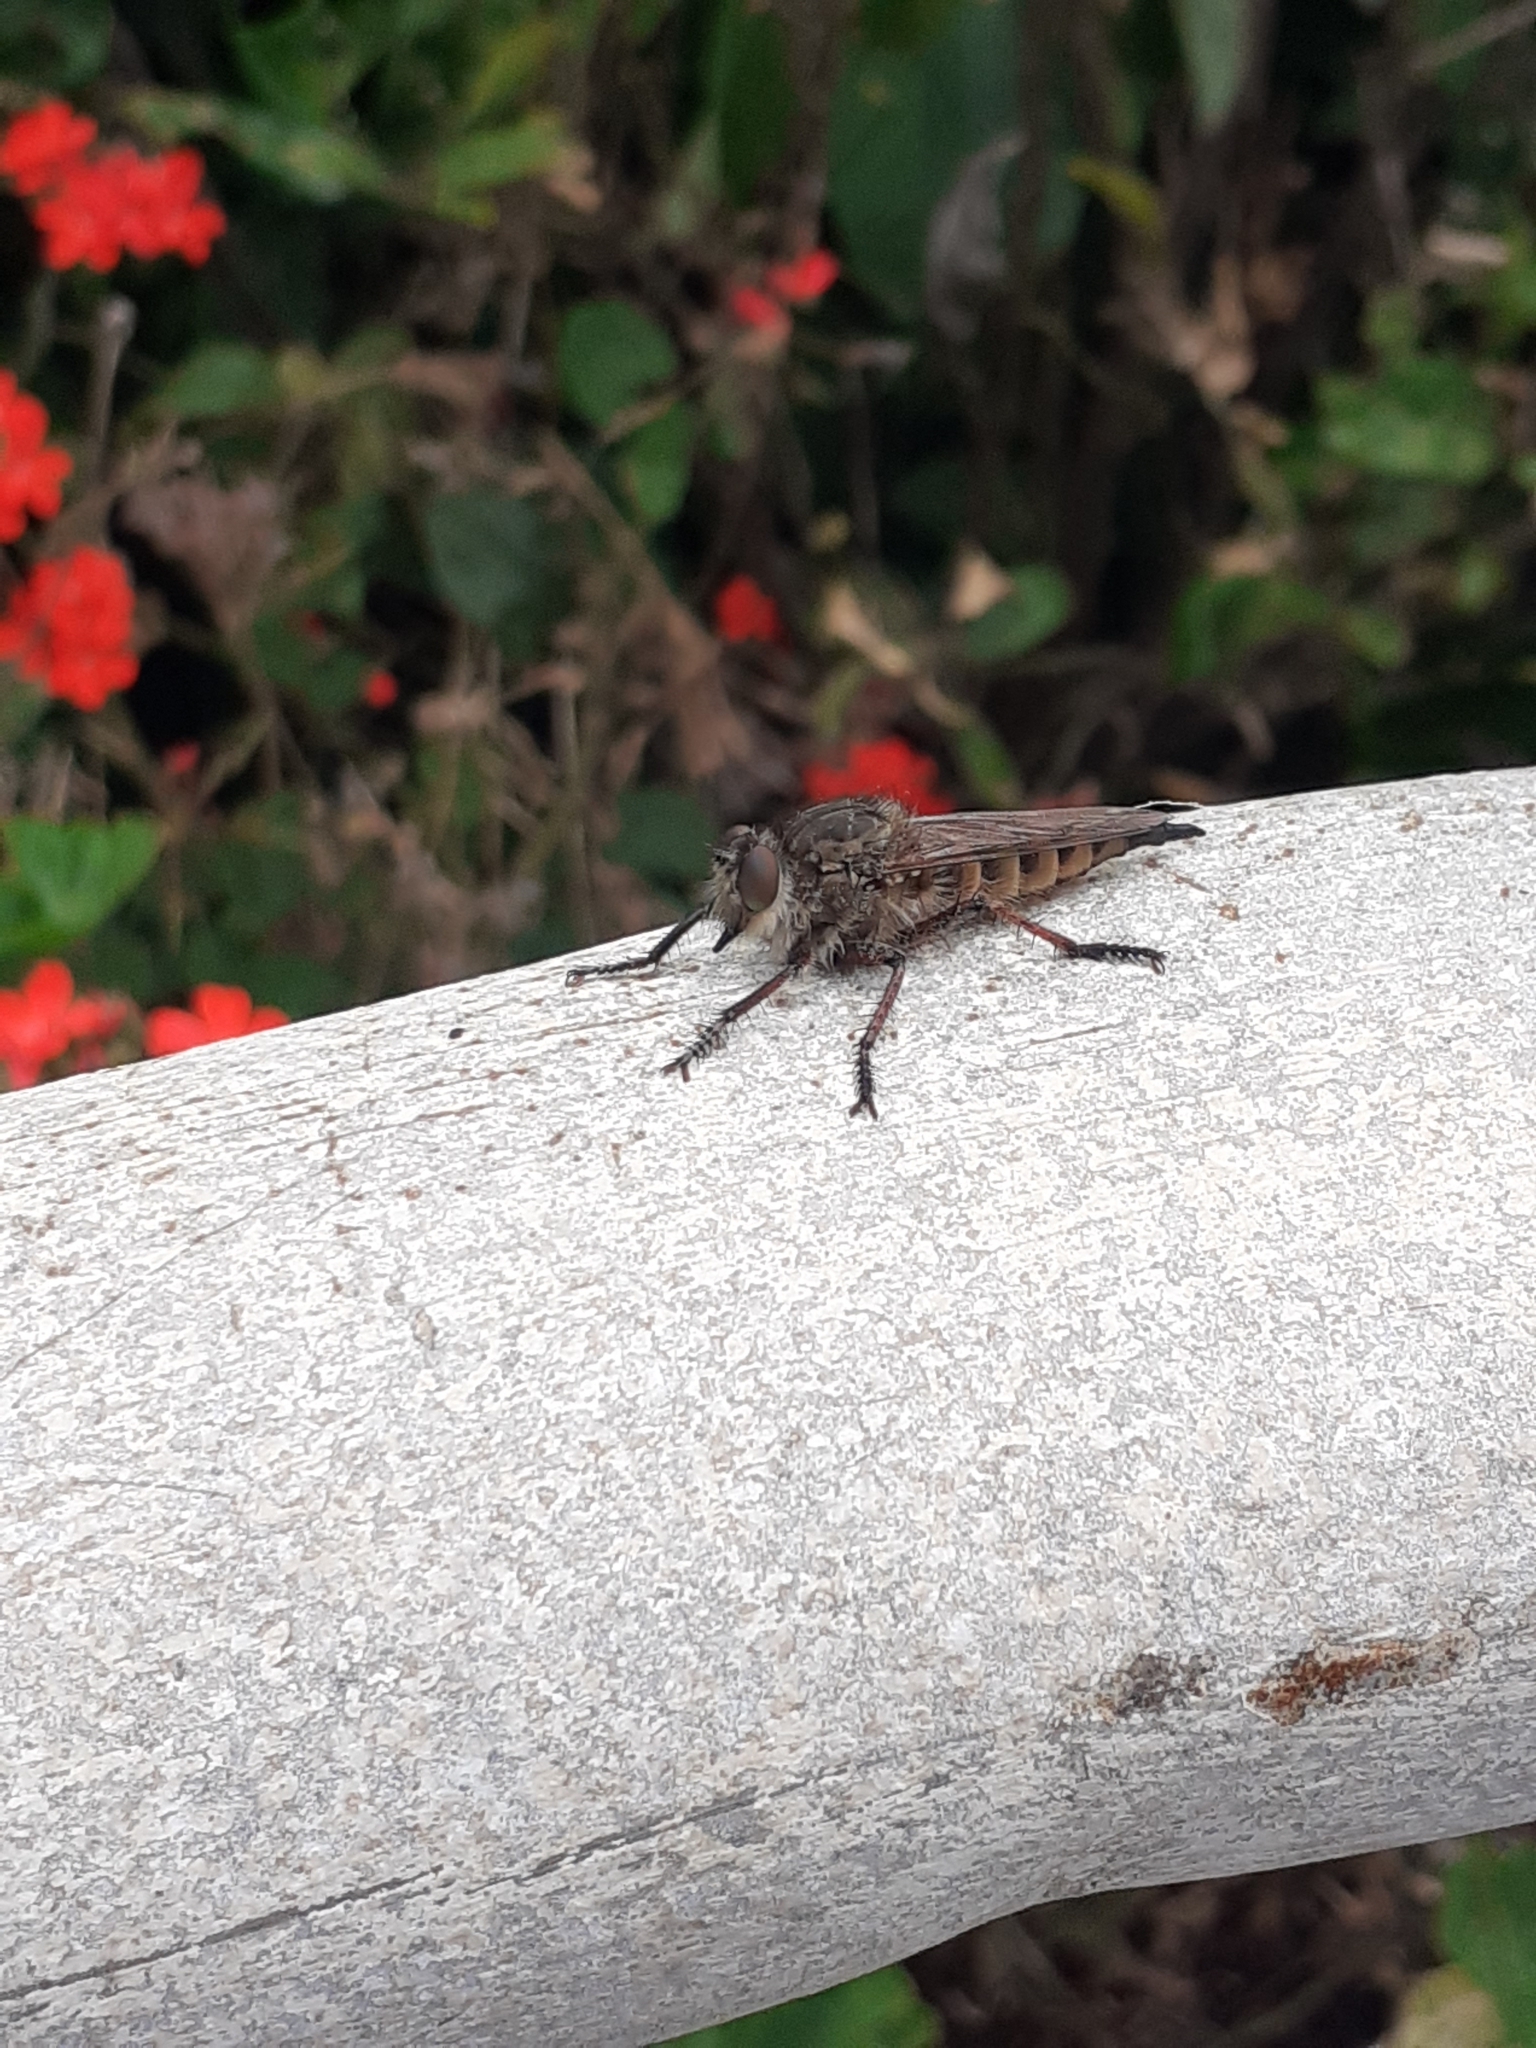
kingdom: Animalia
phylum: Arthropoda
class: Insecta
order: Diptera
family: Asilidae
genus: Promachus
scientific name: Promachus palmensis
